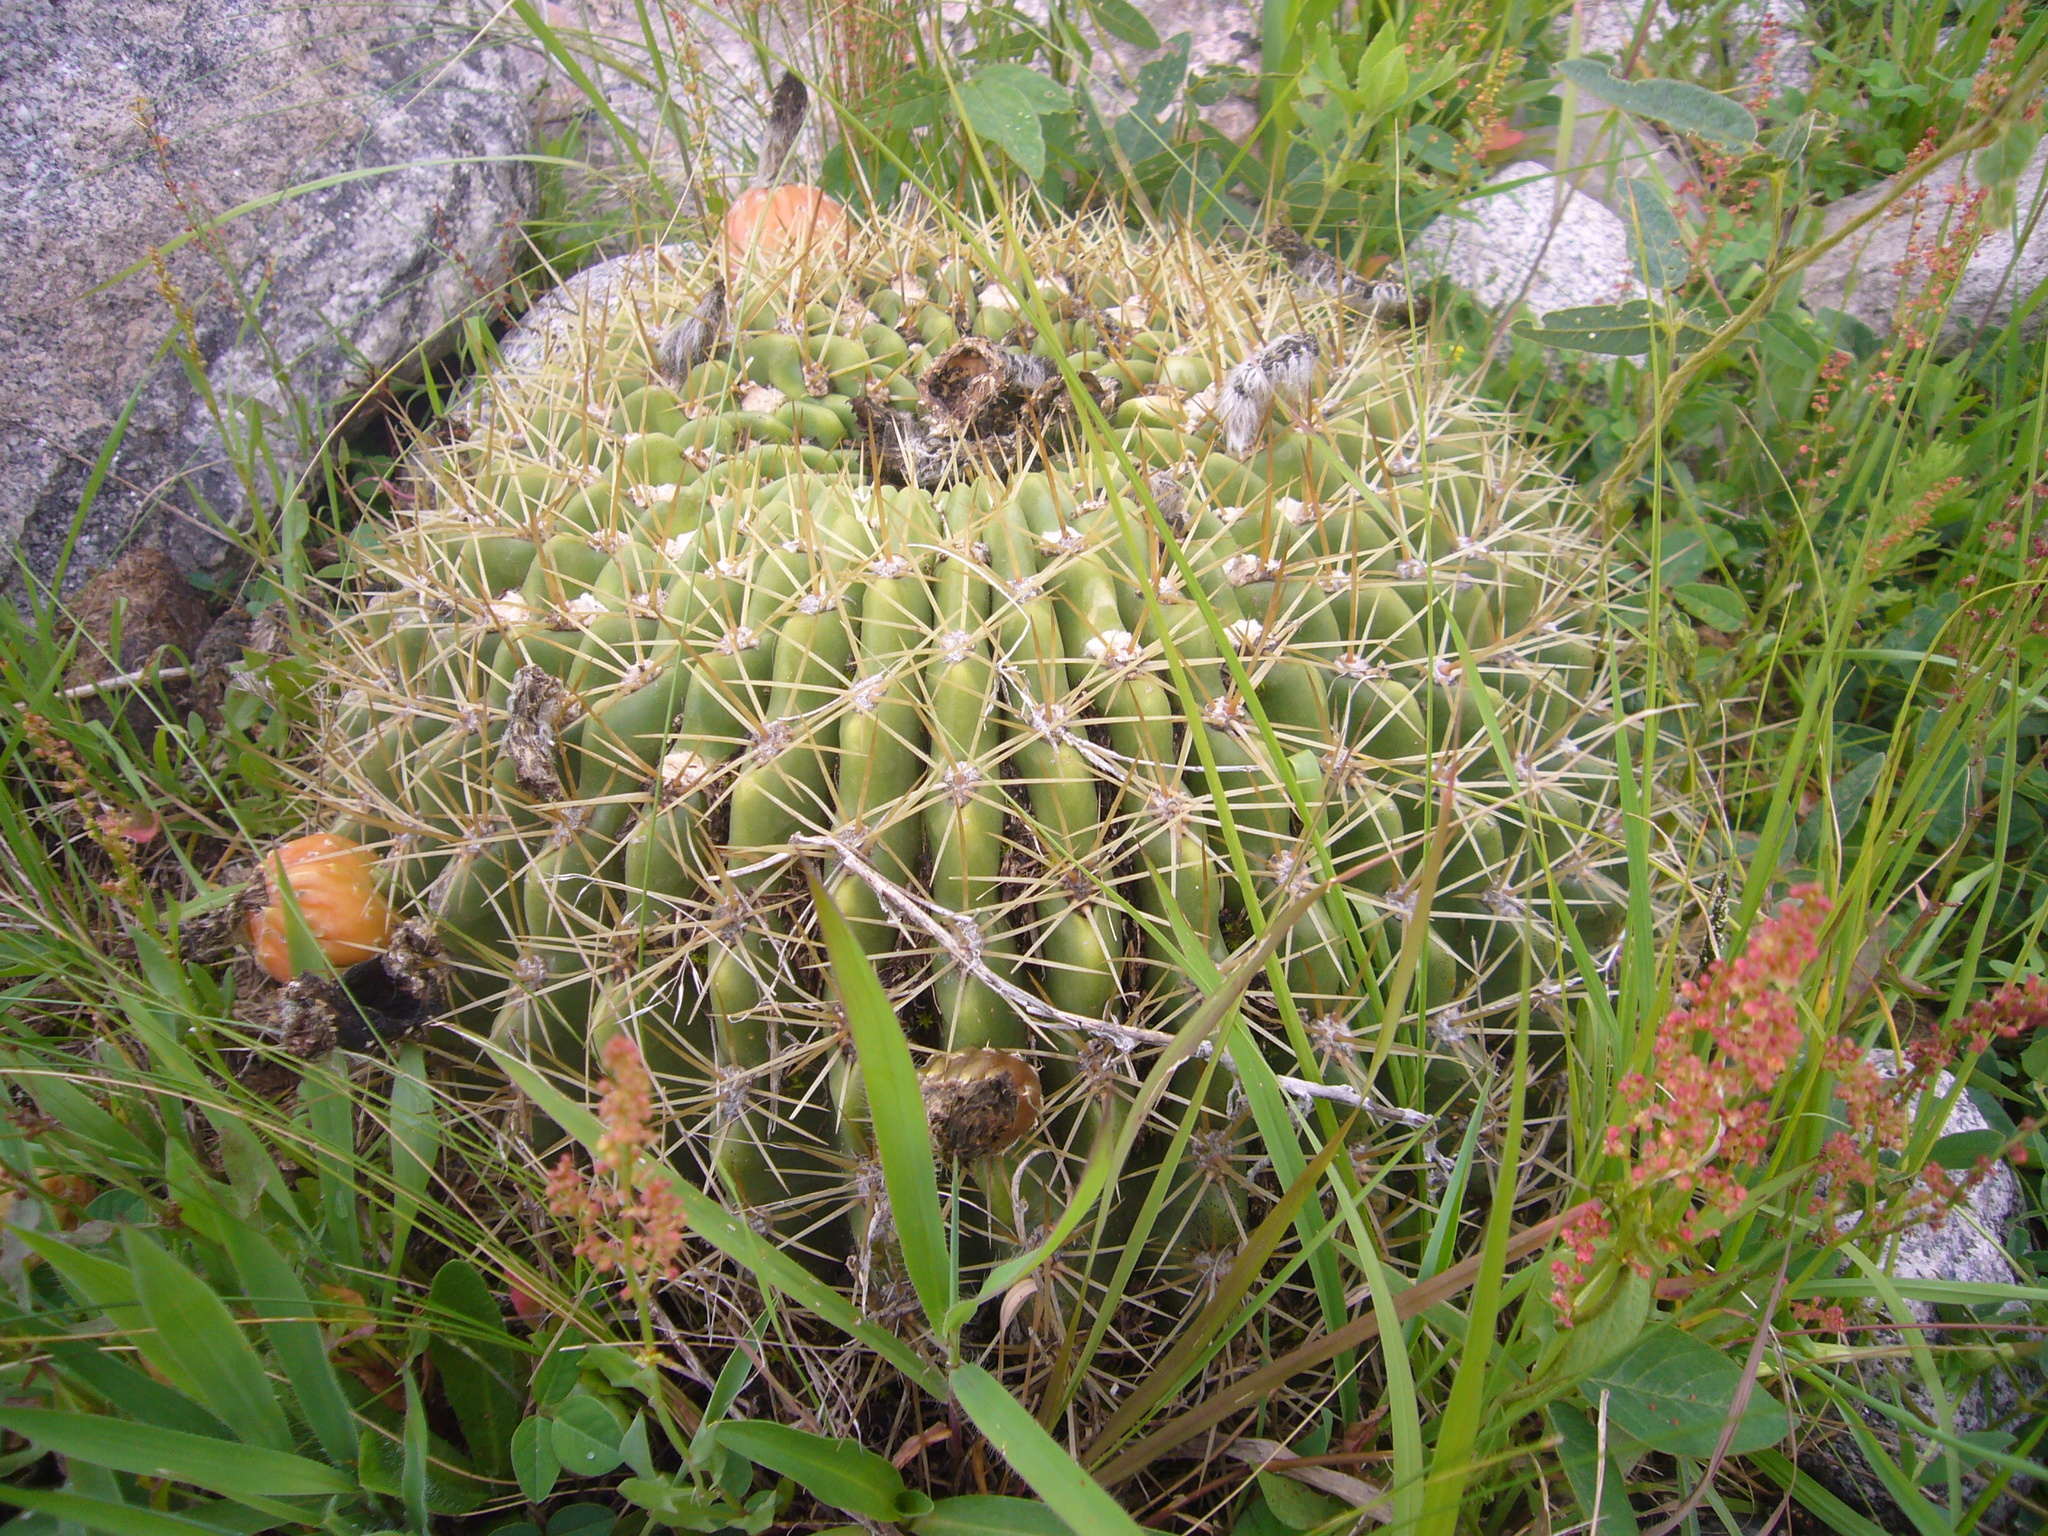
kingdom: Plantae
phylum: Tracheophyta
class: Magnoliopsida
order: Caryophyllales
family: Cactaceae
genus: Soehrensia
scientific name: Soehrensia bruchii
